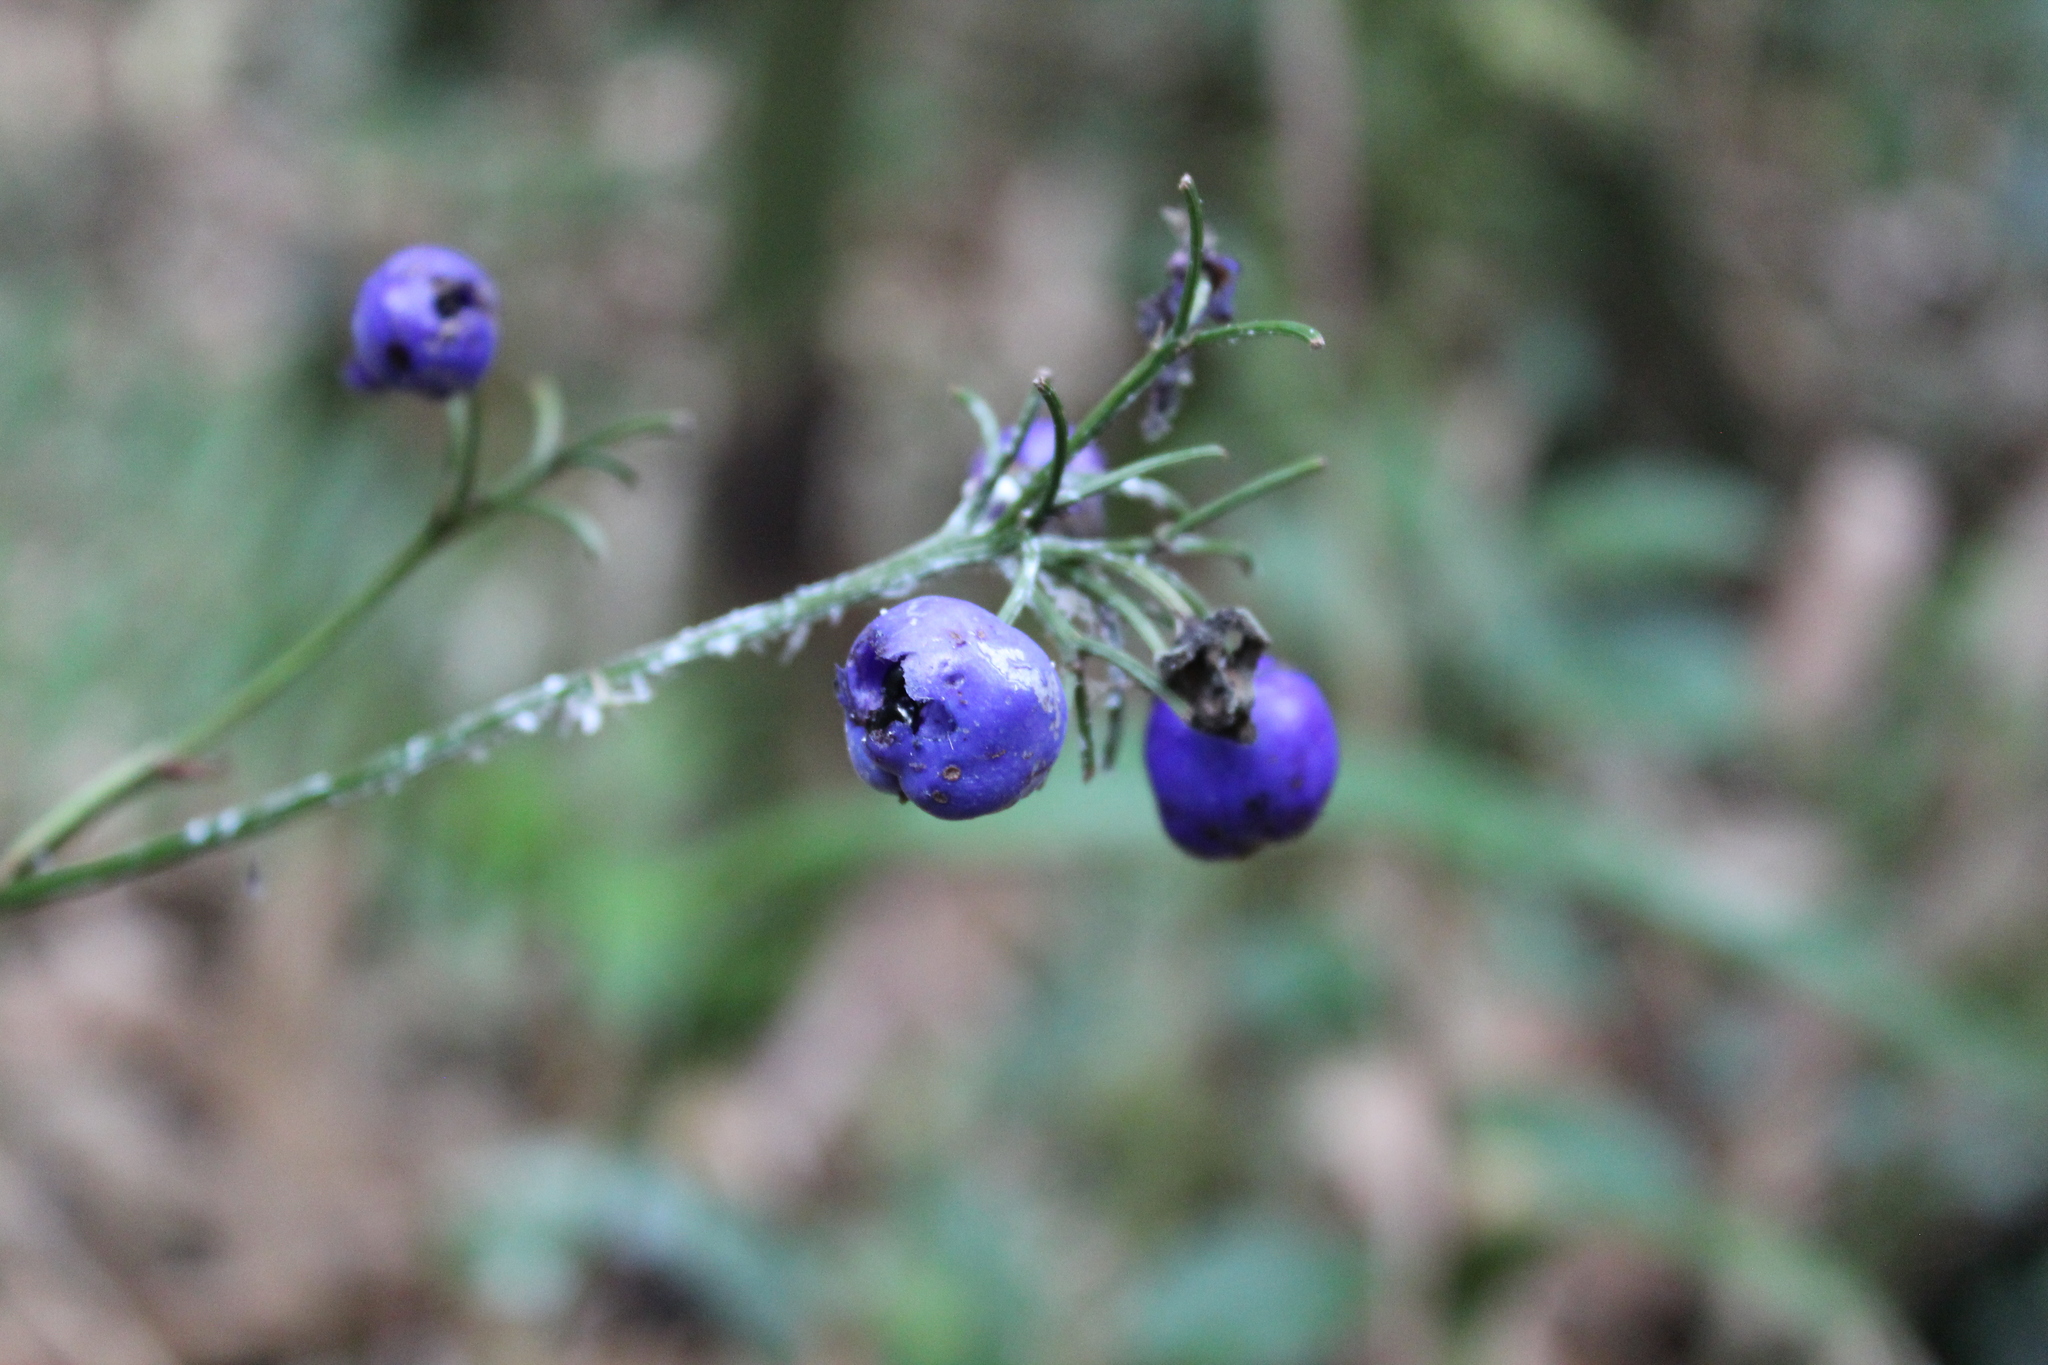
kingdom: Plantae
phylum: Tracheophyta
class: Liliopsida
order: Asparagales
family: Asphodelaceae
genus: Dianella
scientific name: Dianella ensifolia
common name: New zealand lilyplant
